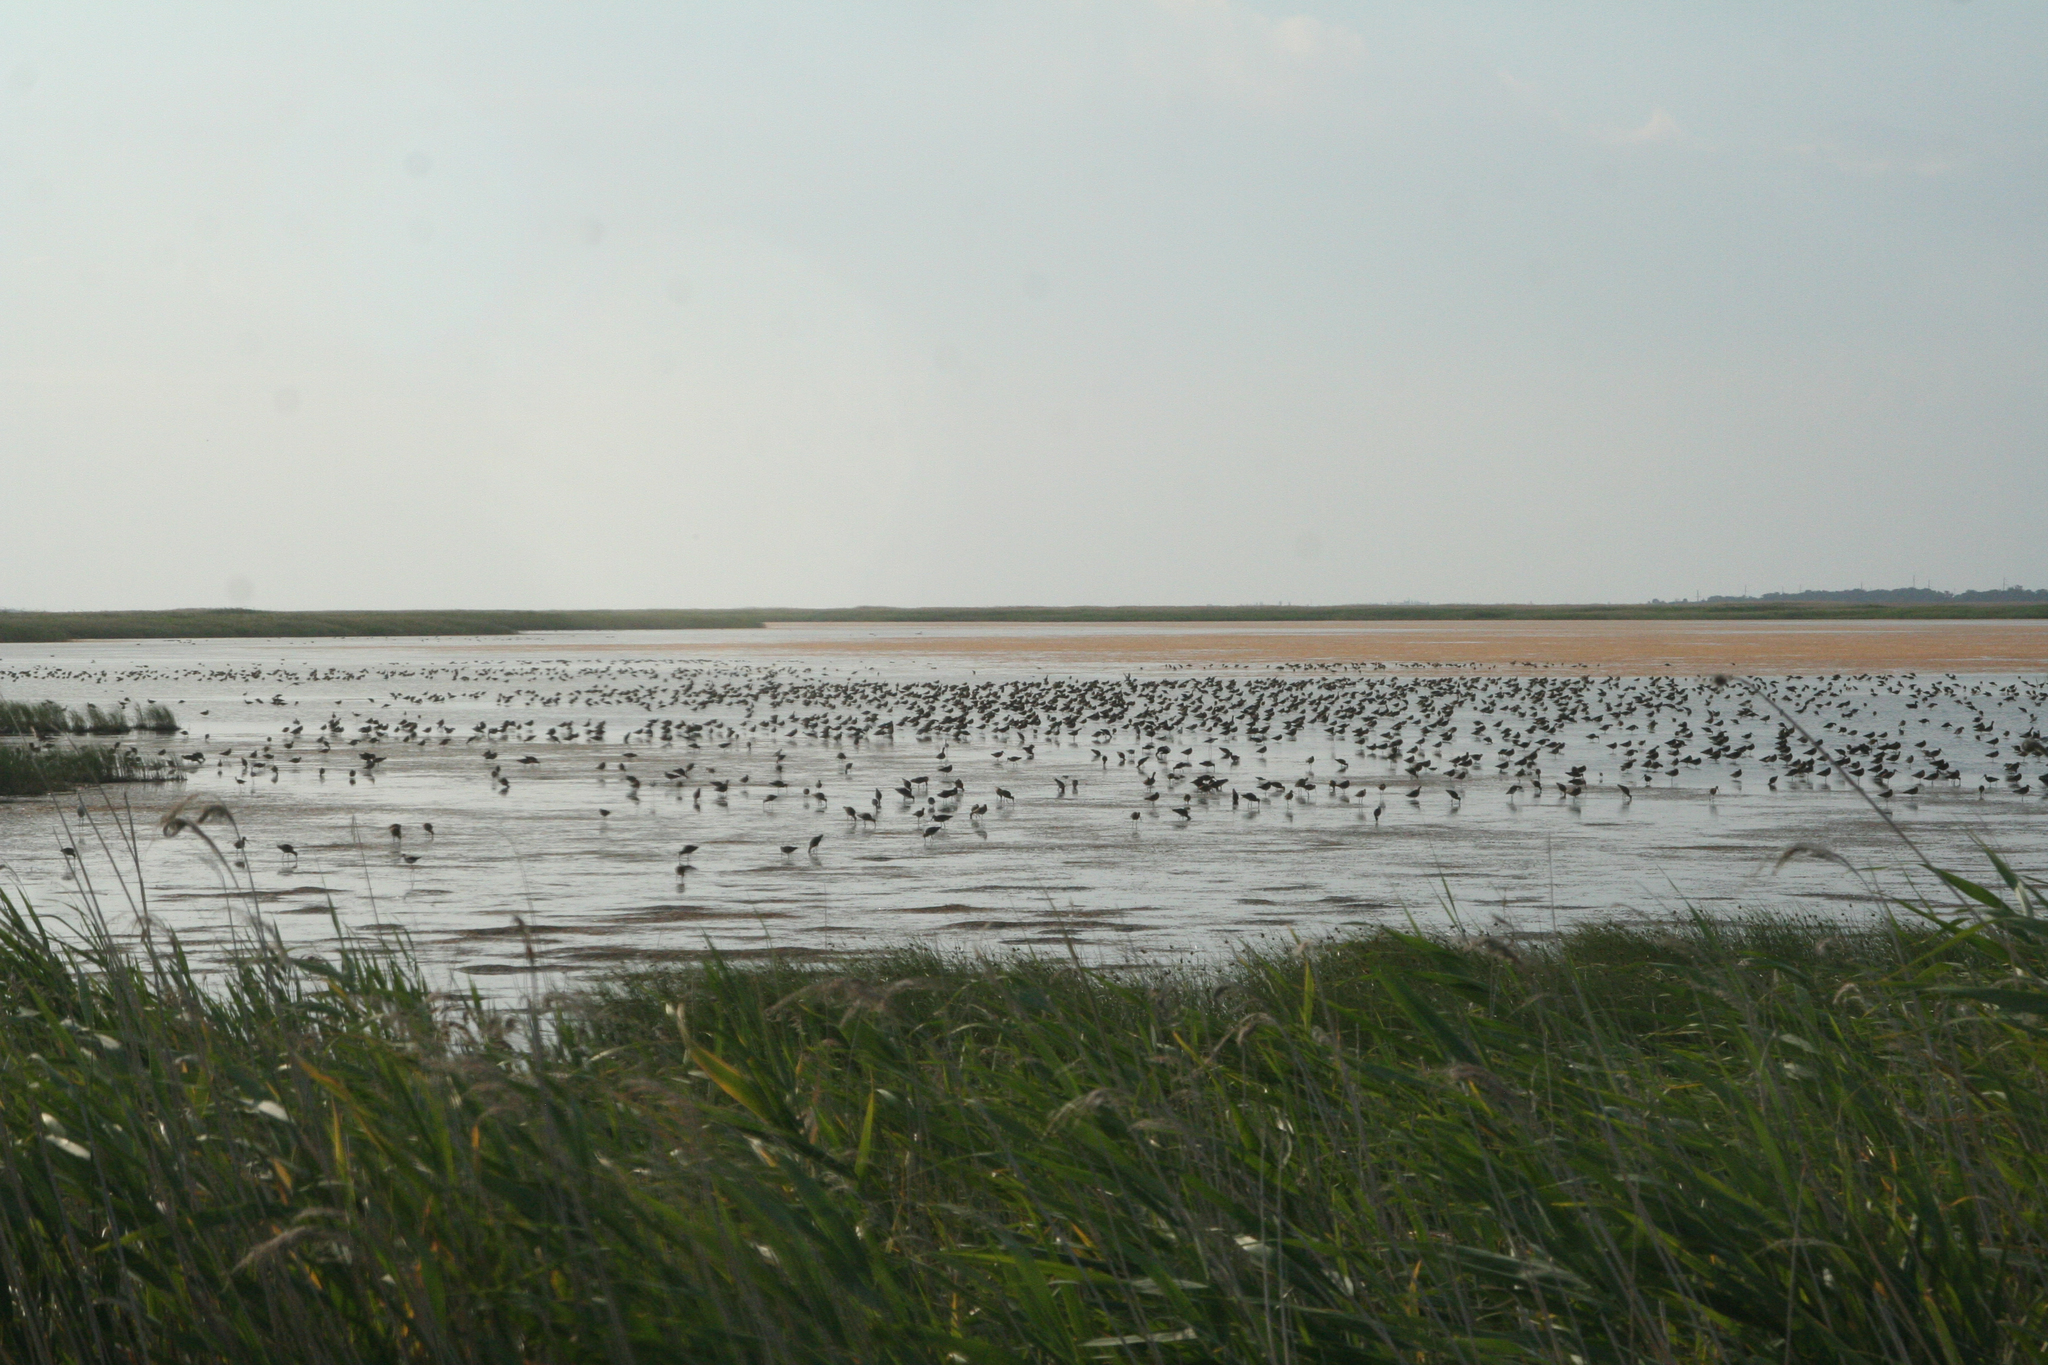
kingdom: Animalia
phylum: Chordata
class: Aves
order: Charadriiformes
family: Scolopacidae
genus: Limosa
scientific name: Limosa limosa
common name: Black-tailed godwit
